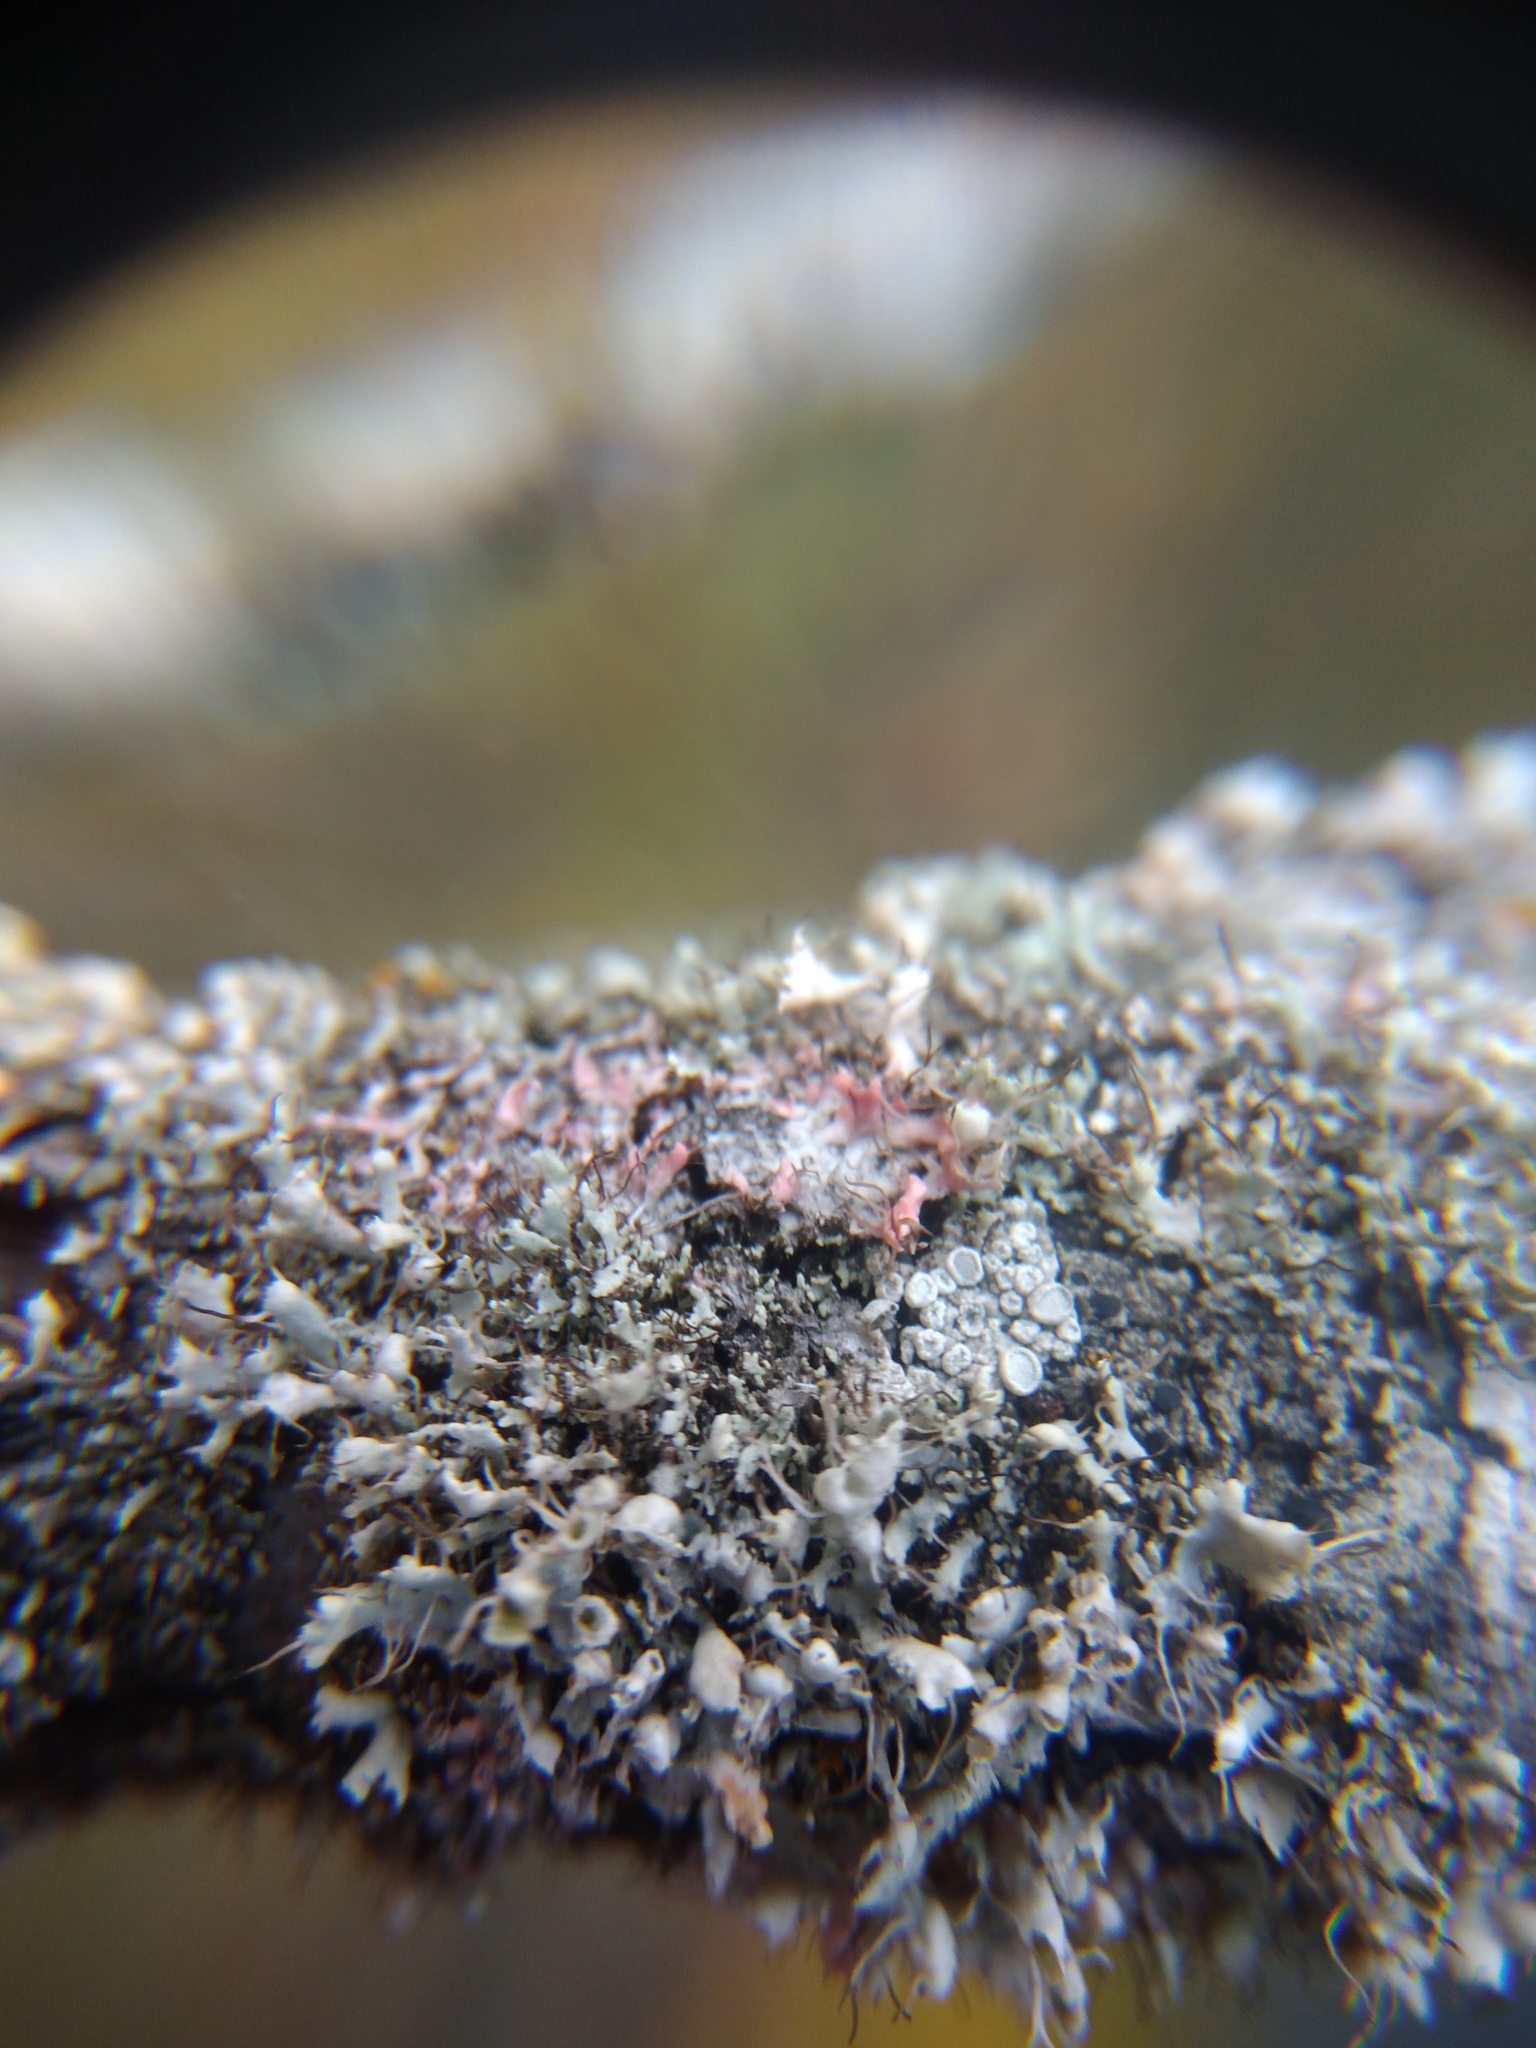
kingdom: Fungi
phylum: Basidiomycota
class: Agaricomycetes
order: Corticiales
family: Corticiaceae
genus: Laetisaria
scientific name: Laetisaria lichenicola
